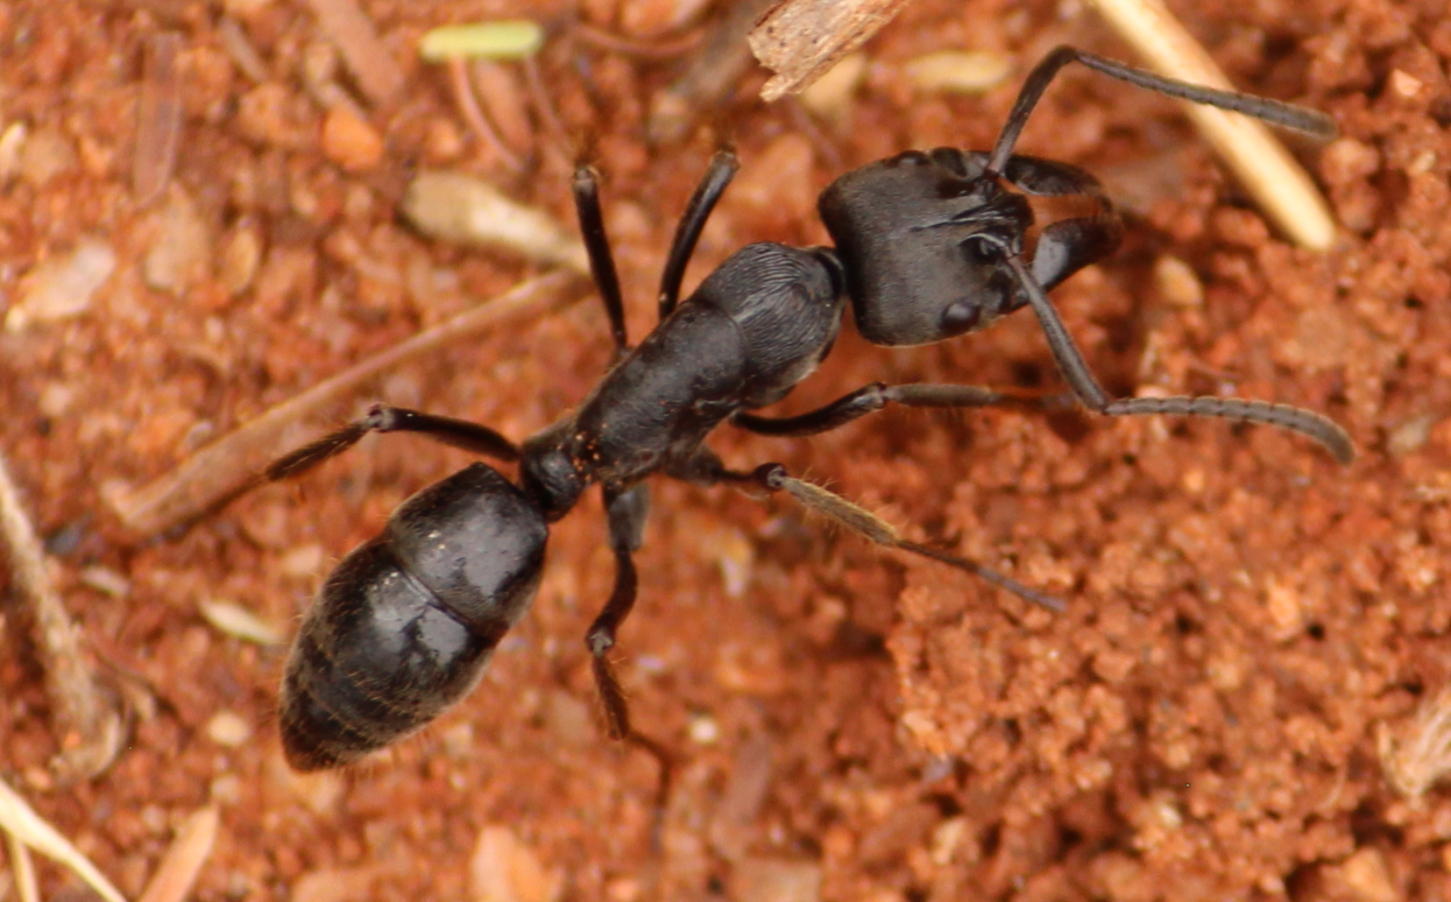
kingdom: Animalia
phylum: Arthropoda
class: Insecta
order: Hymenoptera
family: Formicidae
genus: Paltothyreus
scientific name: Paltothyreus tarsatus
